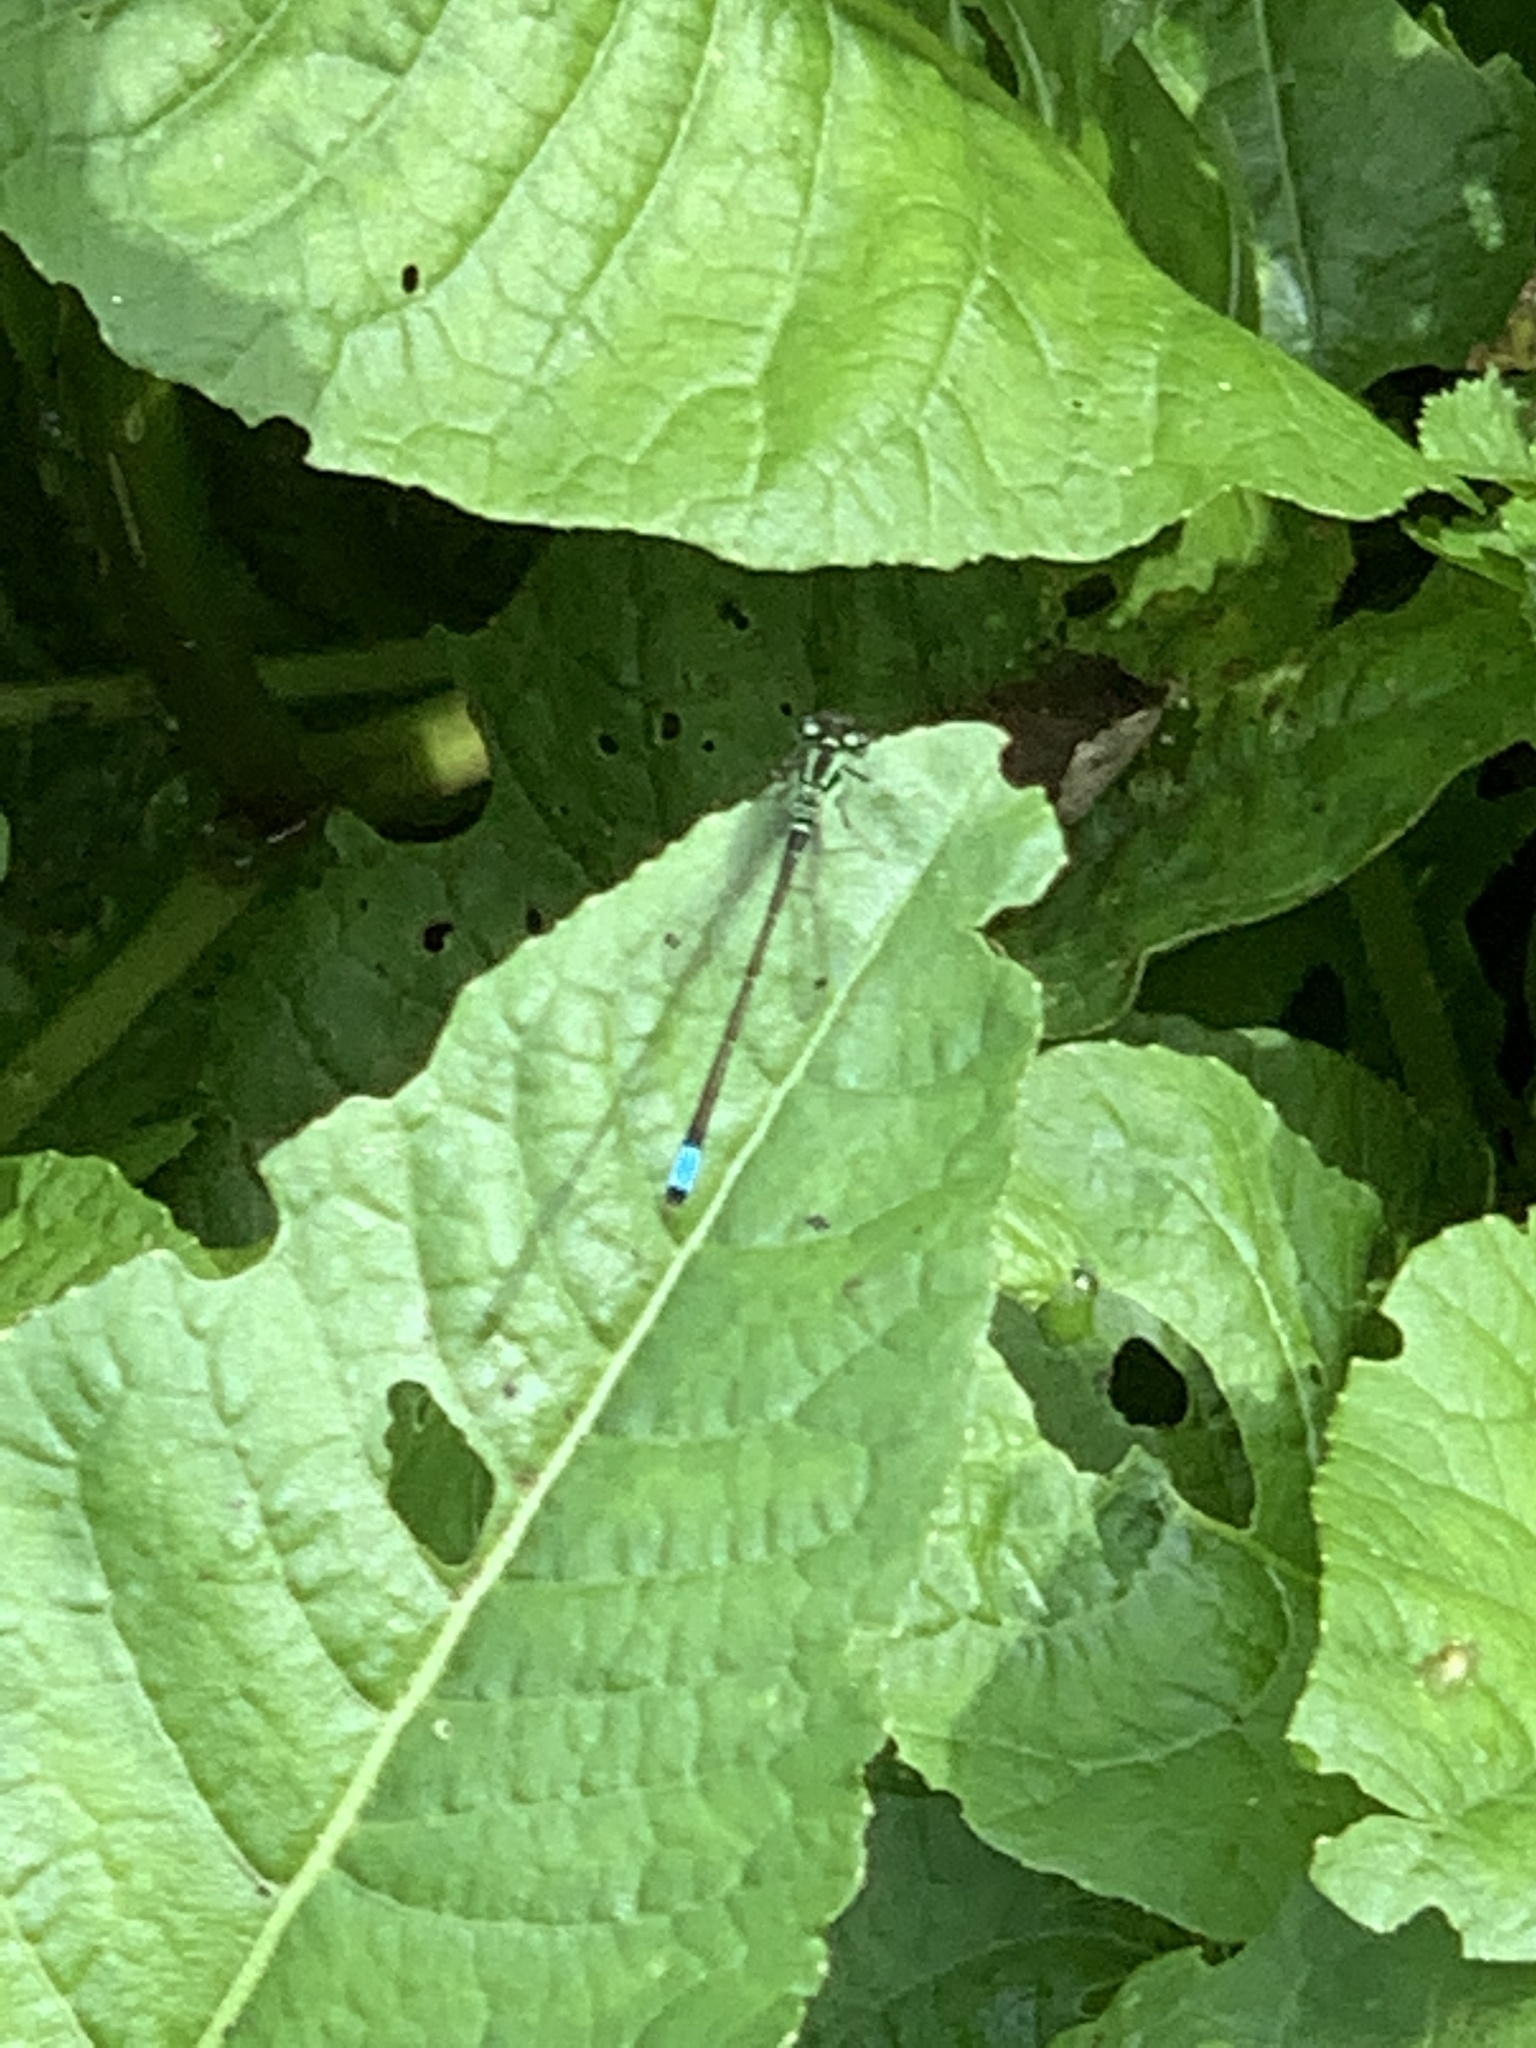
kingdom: Animalia
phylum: Arthropoda
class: Insecta
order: Odonata
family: Coenagrionidae
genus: Ischnura
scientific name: Ischnura verticalis
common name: Eastern forktail
